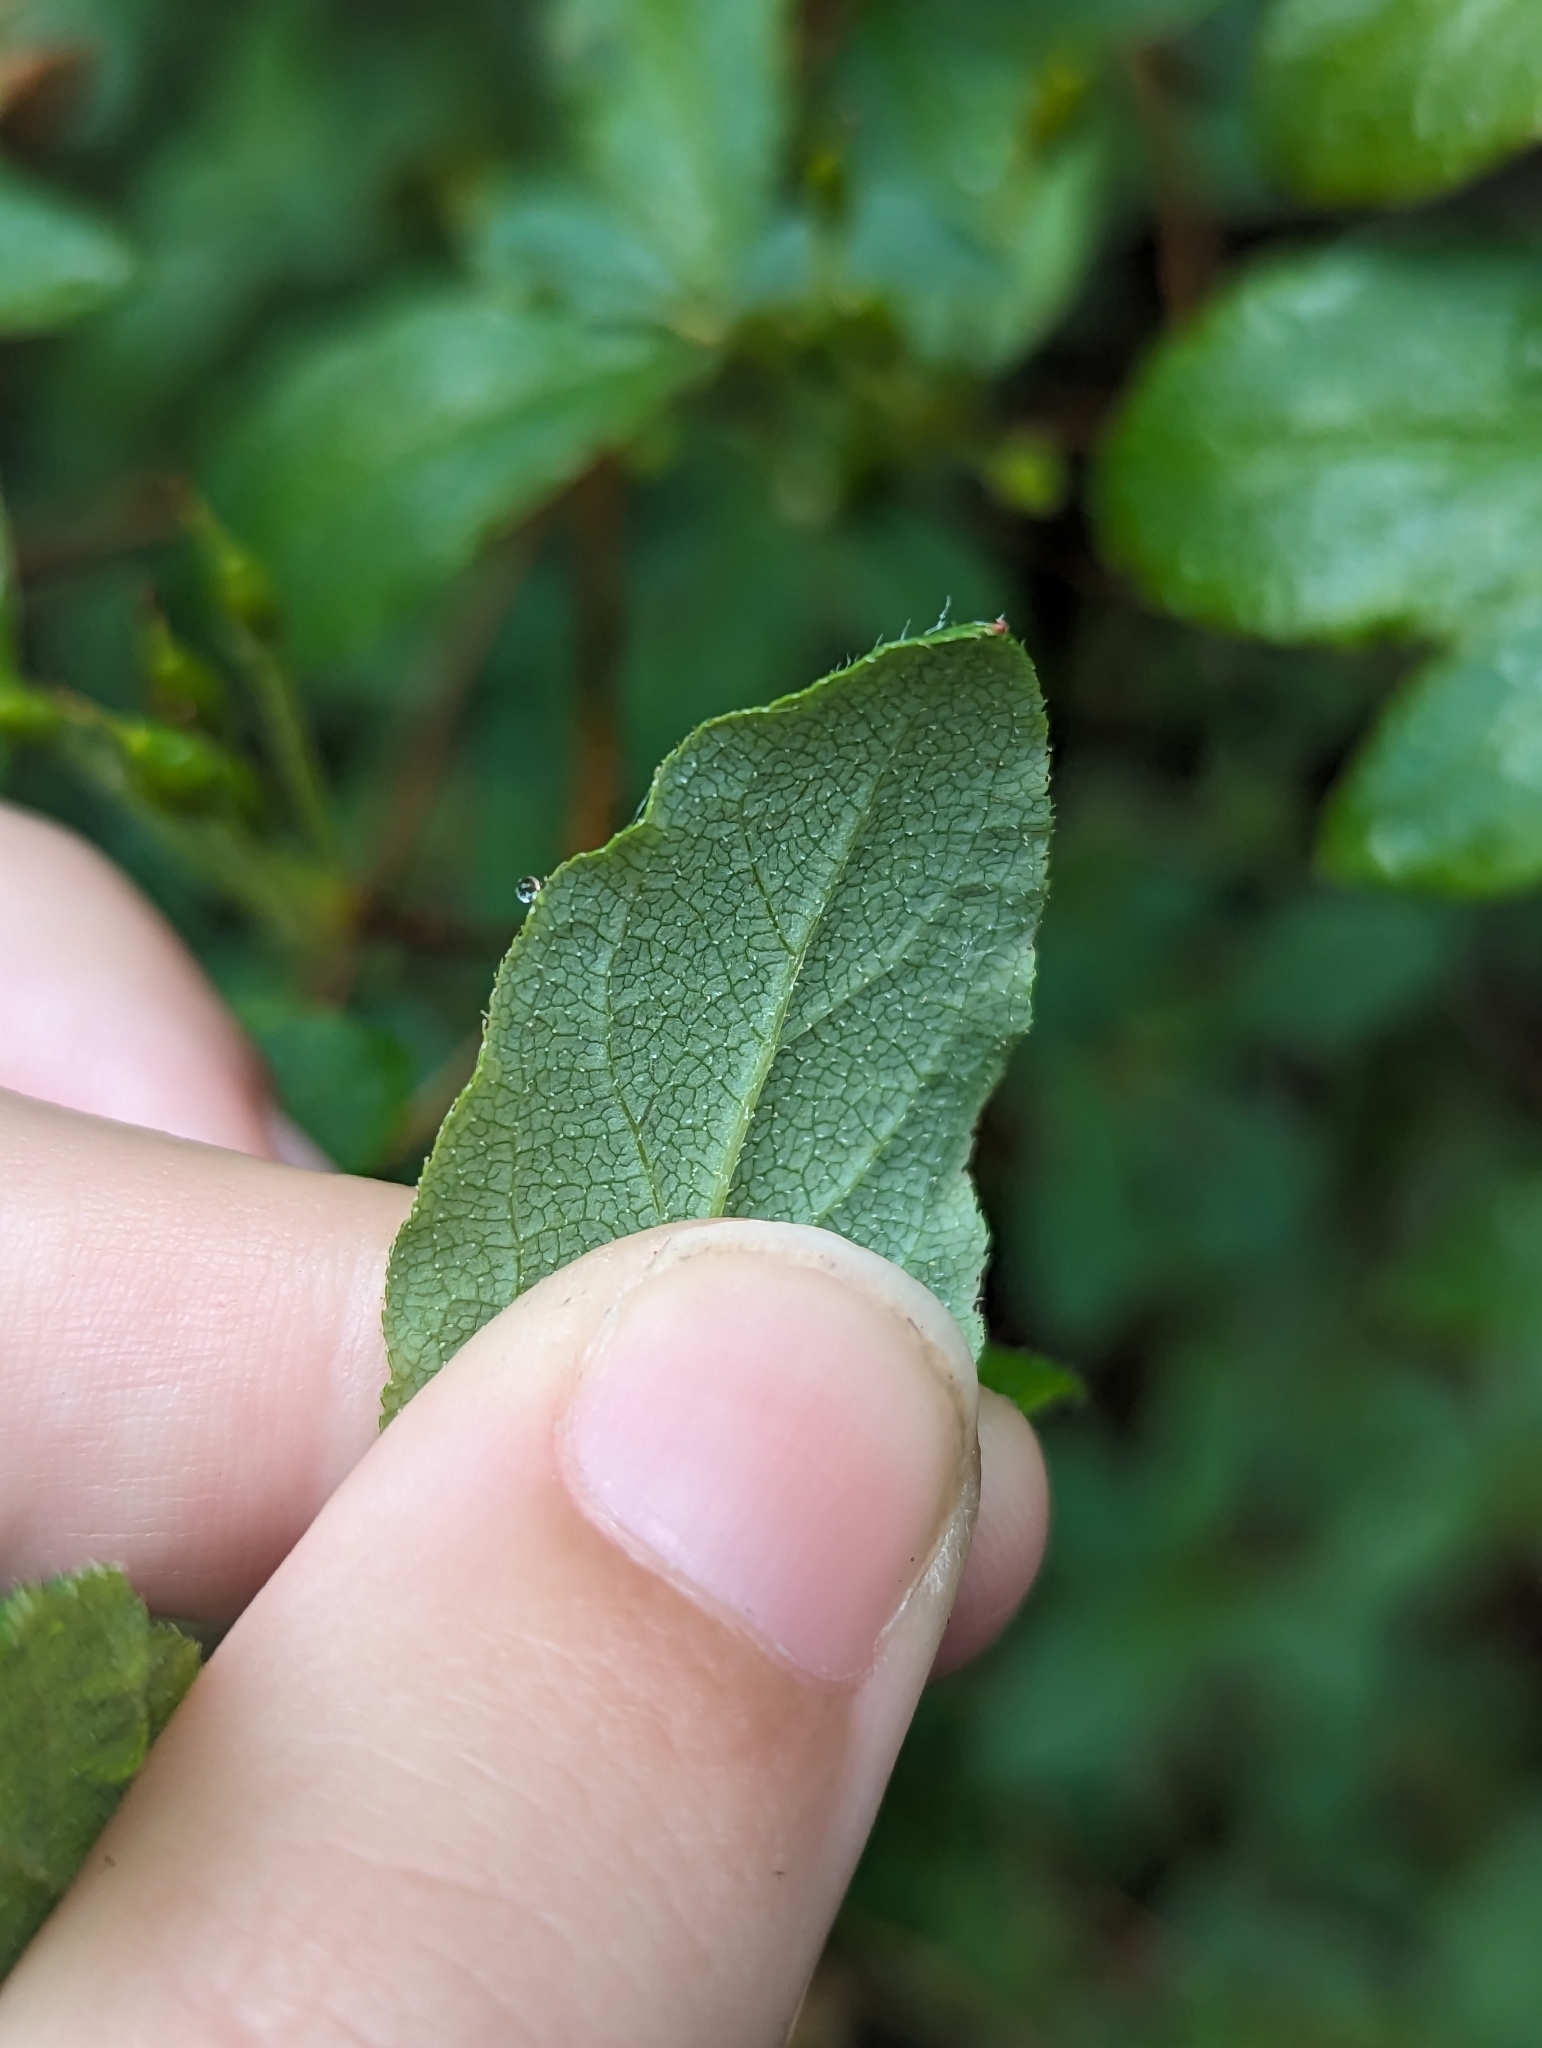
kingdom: Plantae
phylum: Tracheophyta
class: Magnoliopsida
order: Ericales
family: Ericaceae
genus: Rhododendron
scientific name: Rhododendron menziesii
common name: Pacific menziesia
